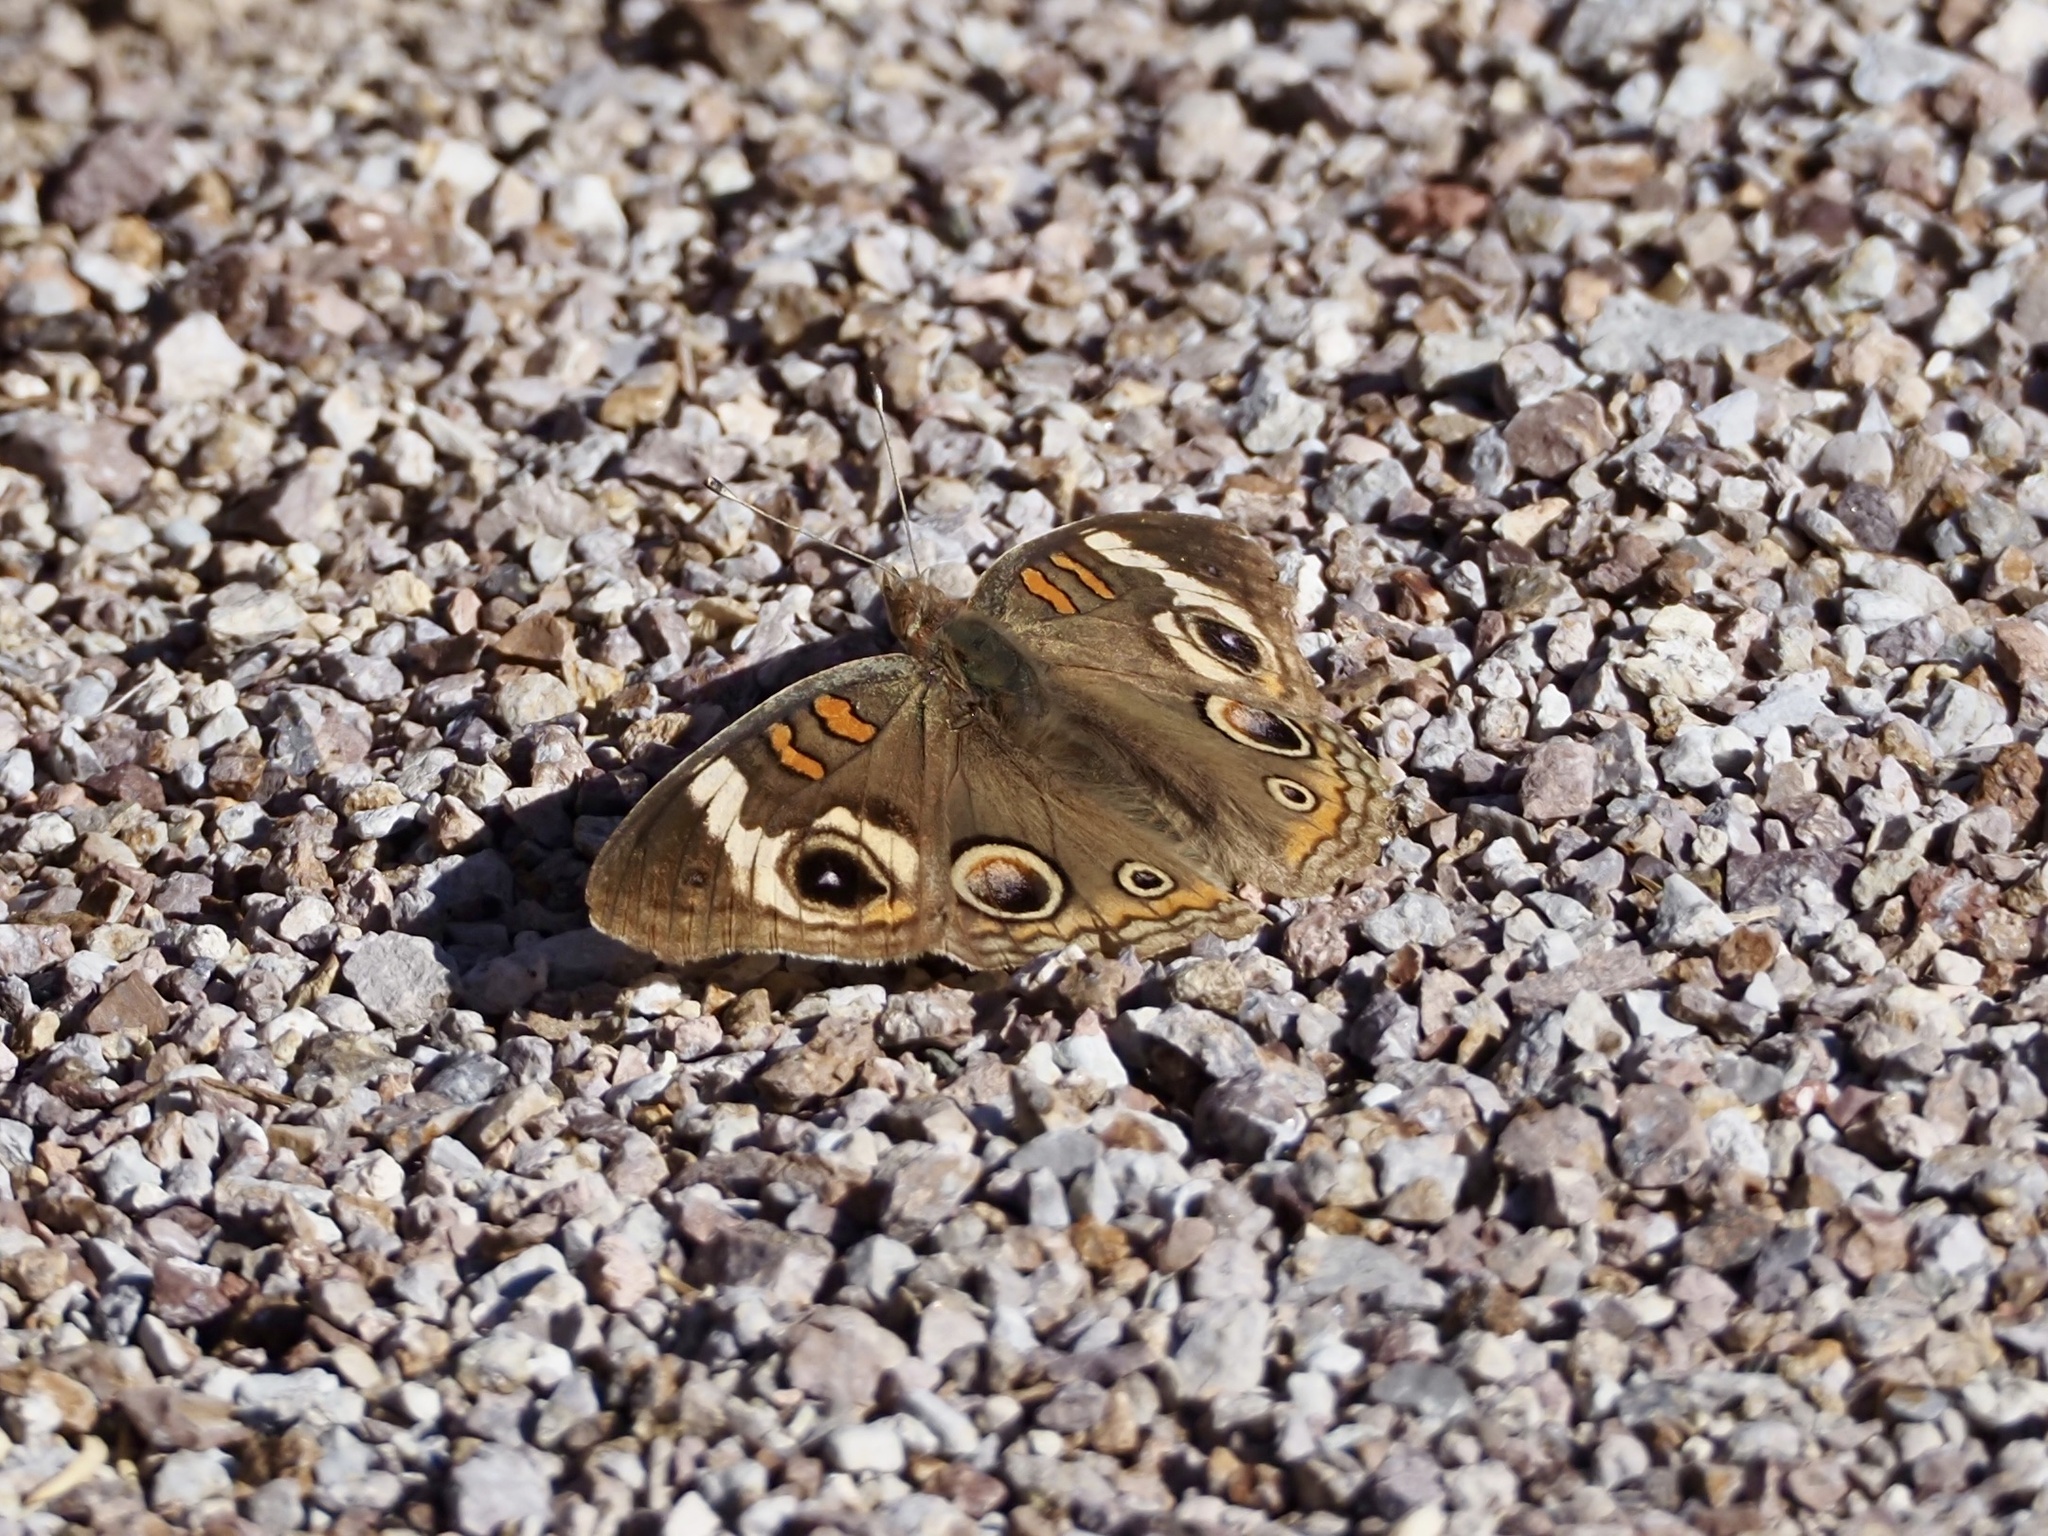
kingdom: Animalia
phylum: Arthropoda
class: Insecta
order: Lepidoptera
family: Nymphalidae
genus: Junonia
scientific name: Junonia grisea
